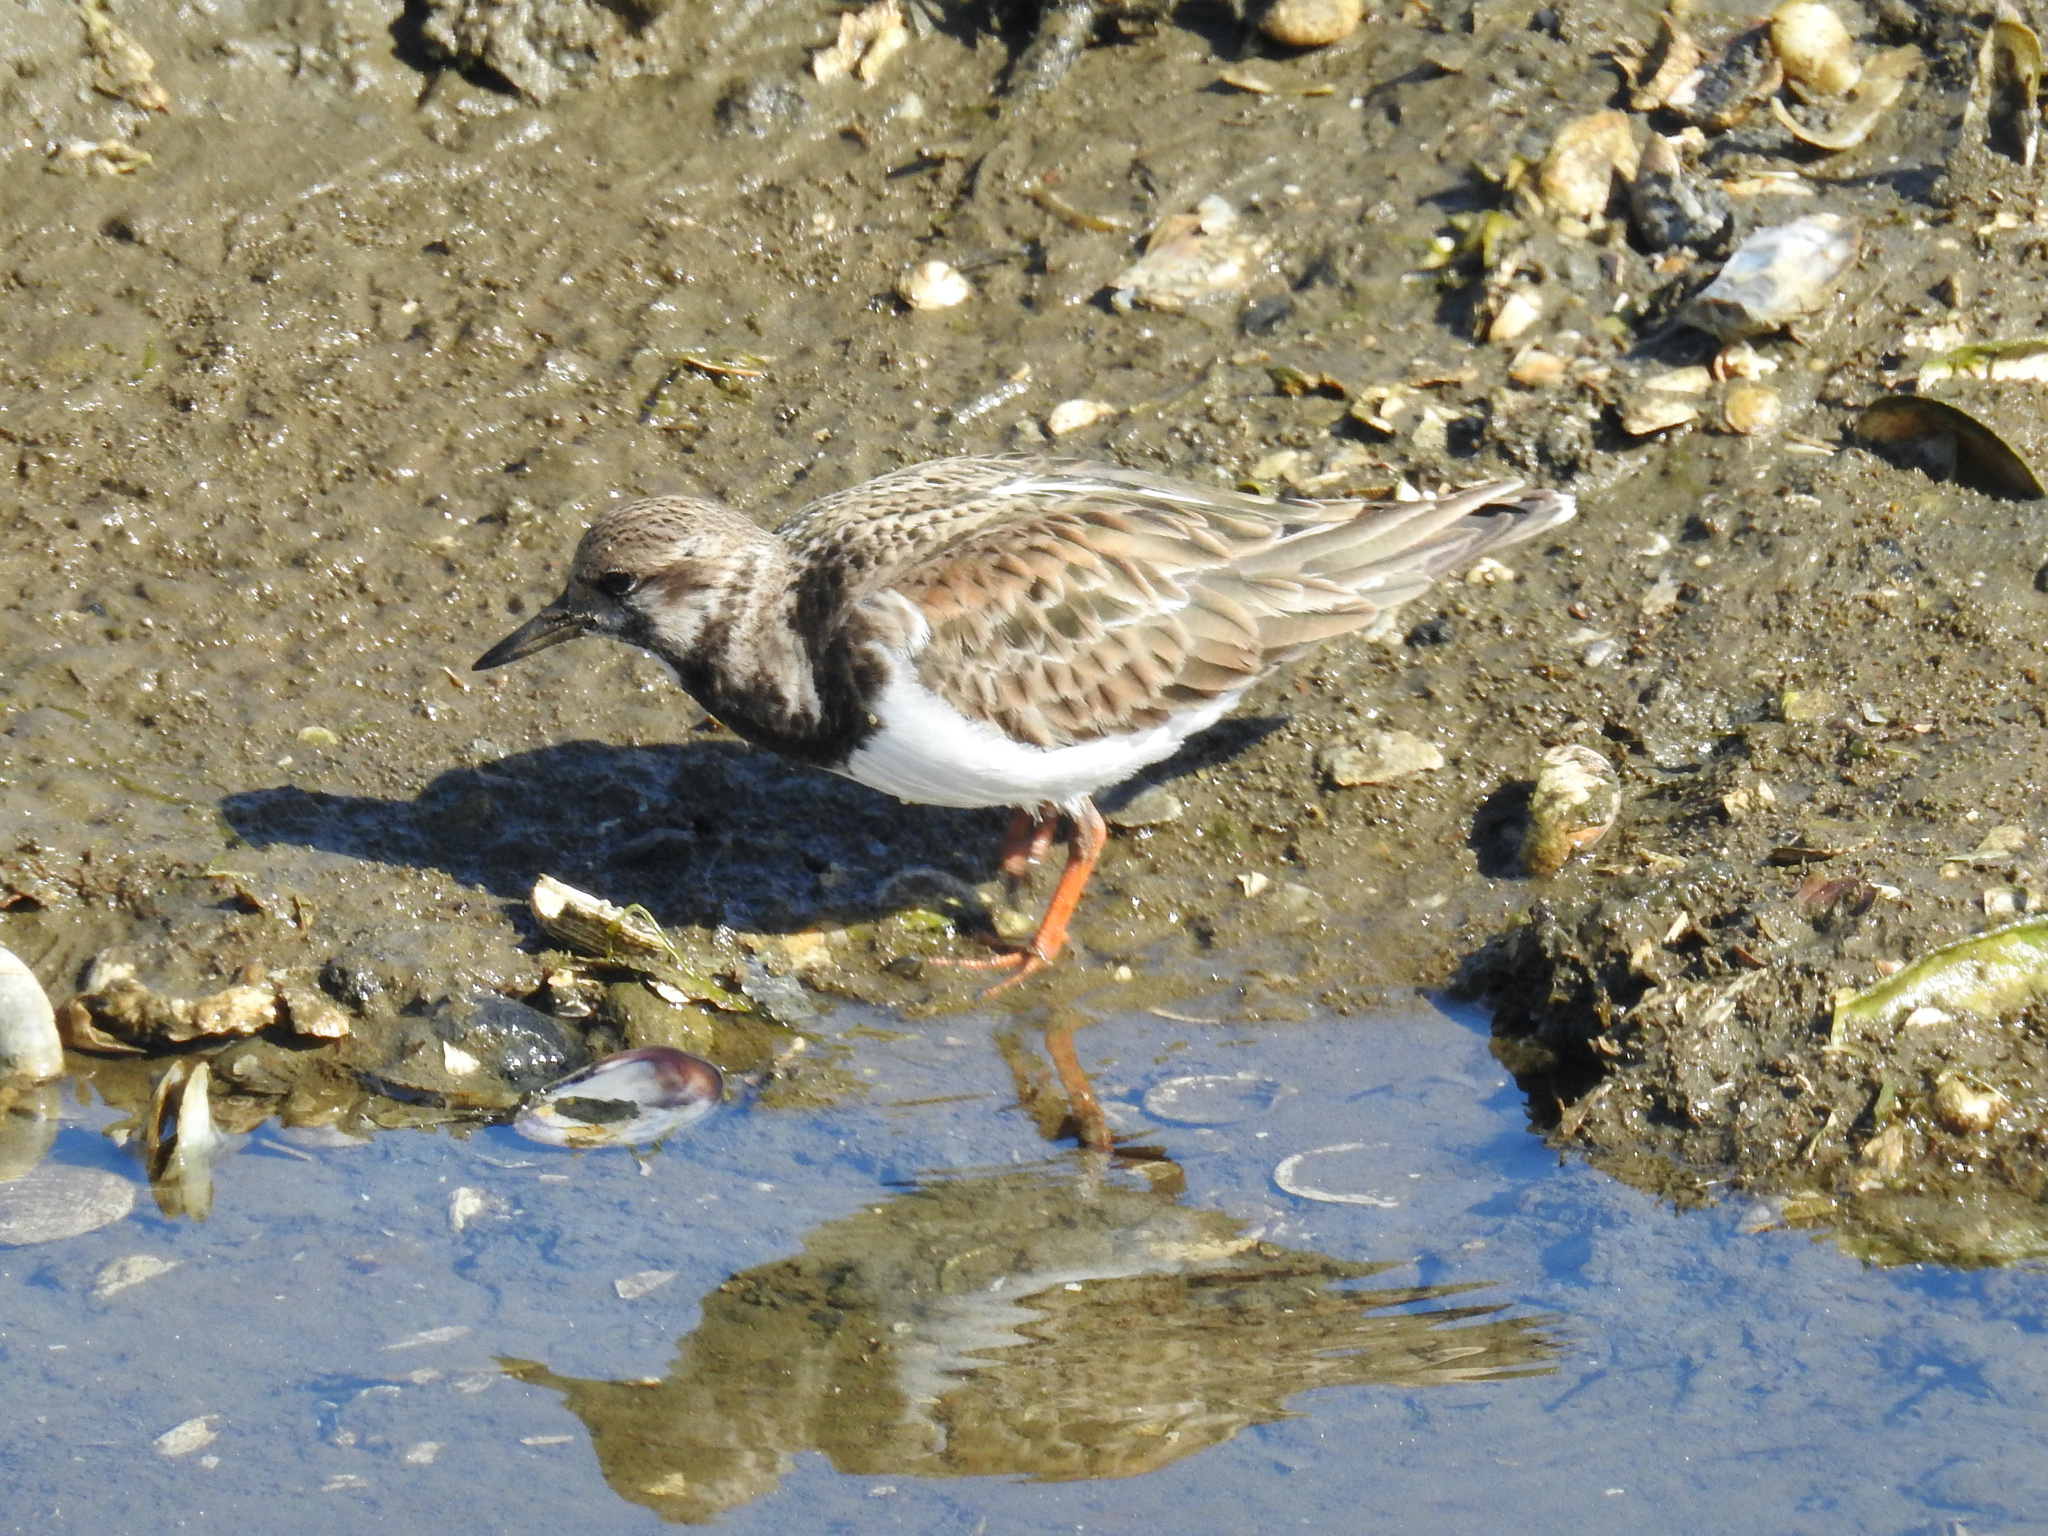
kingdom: Animalia
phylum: Chordata
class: Aves
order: Charadriiformes
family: Scolopacidae
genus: Arenaria
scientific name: Arenaria interpres
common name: Ruddy turnstone
